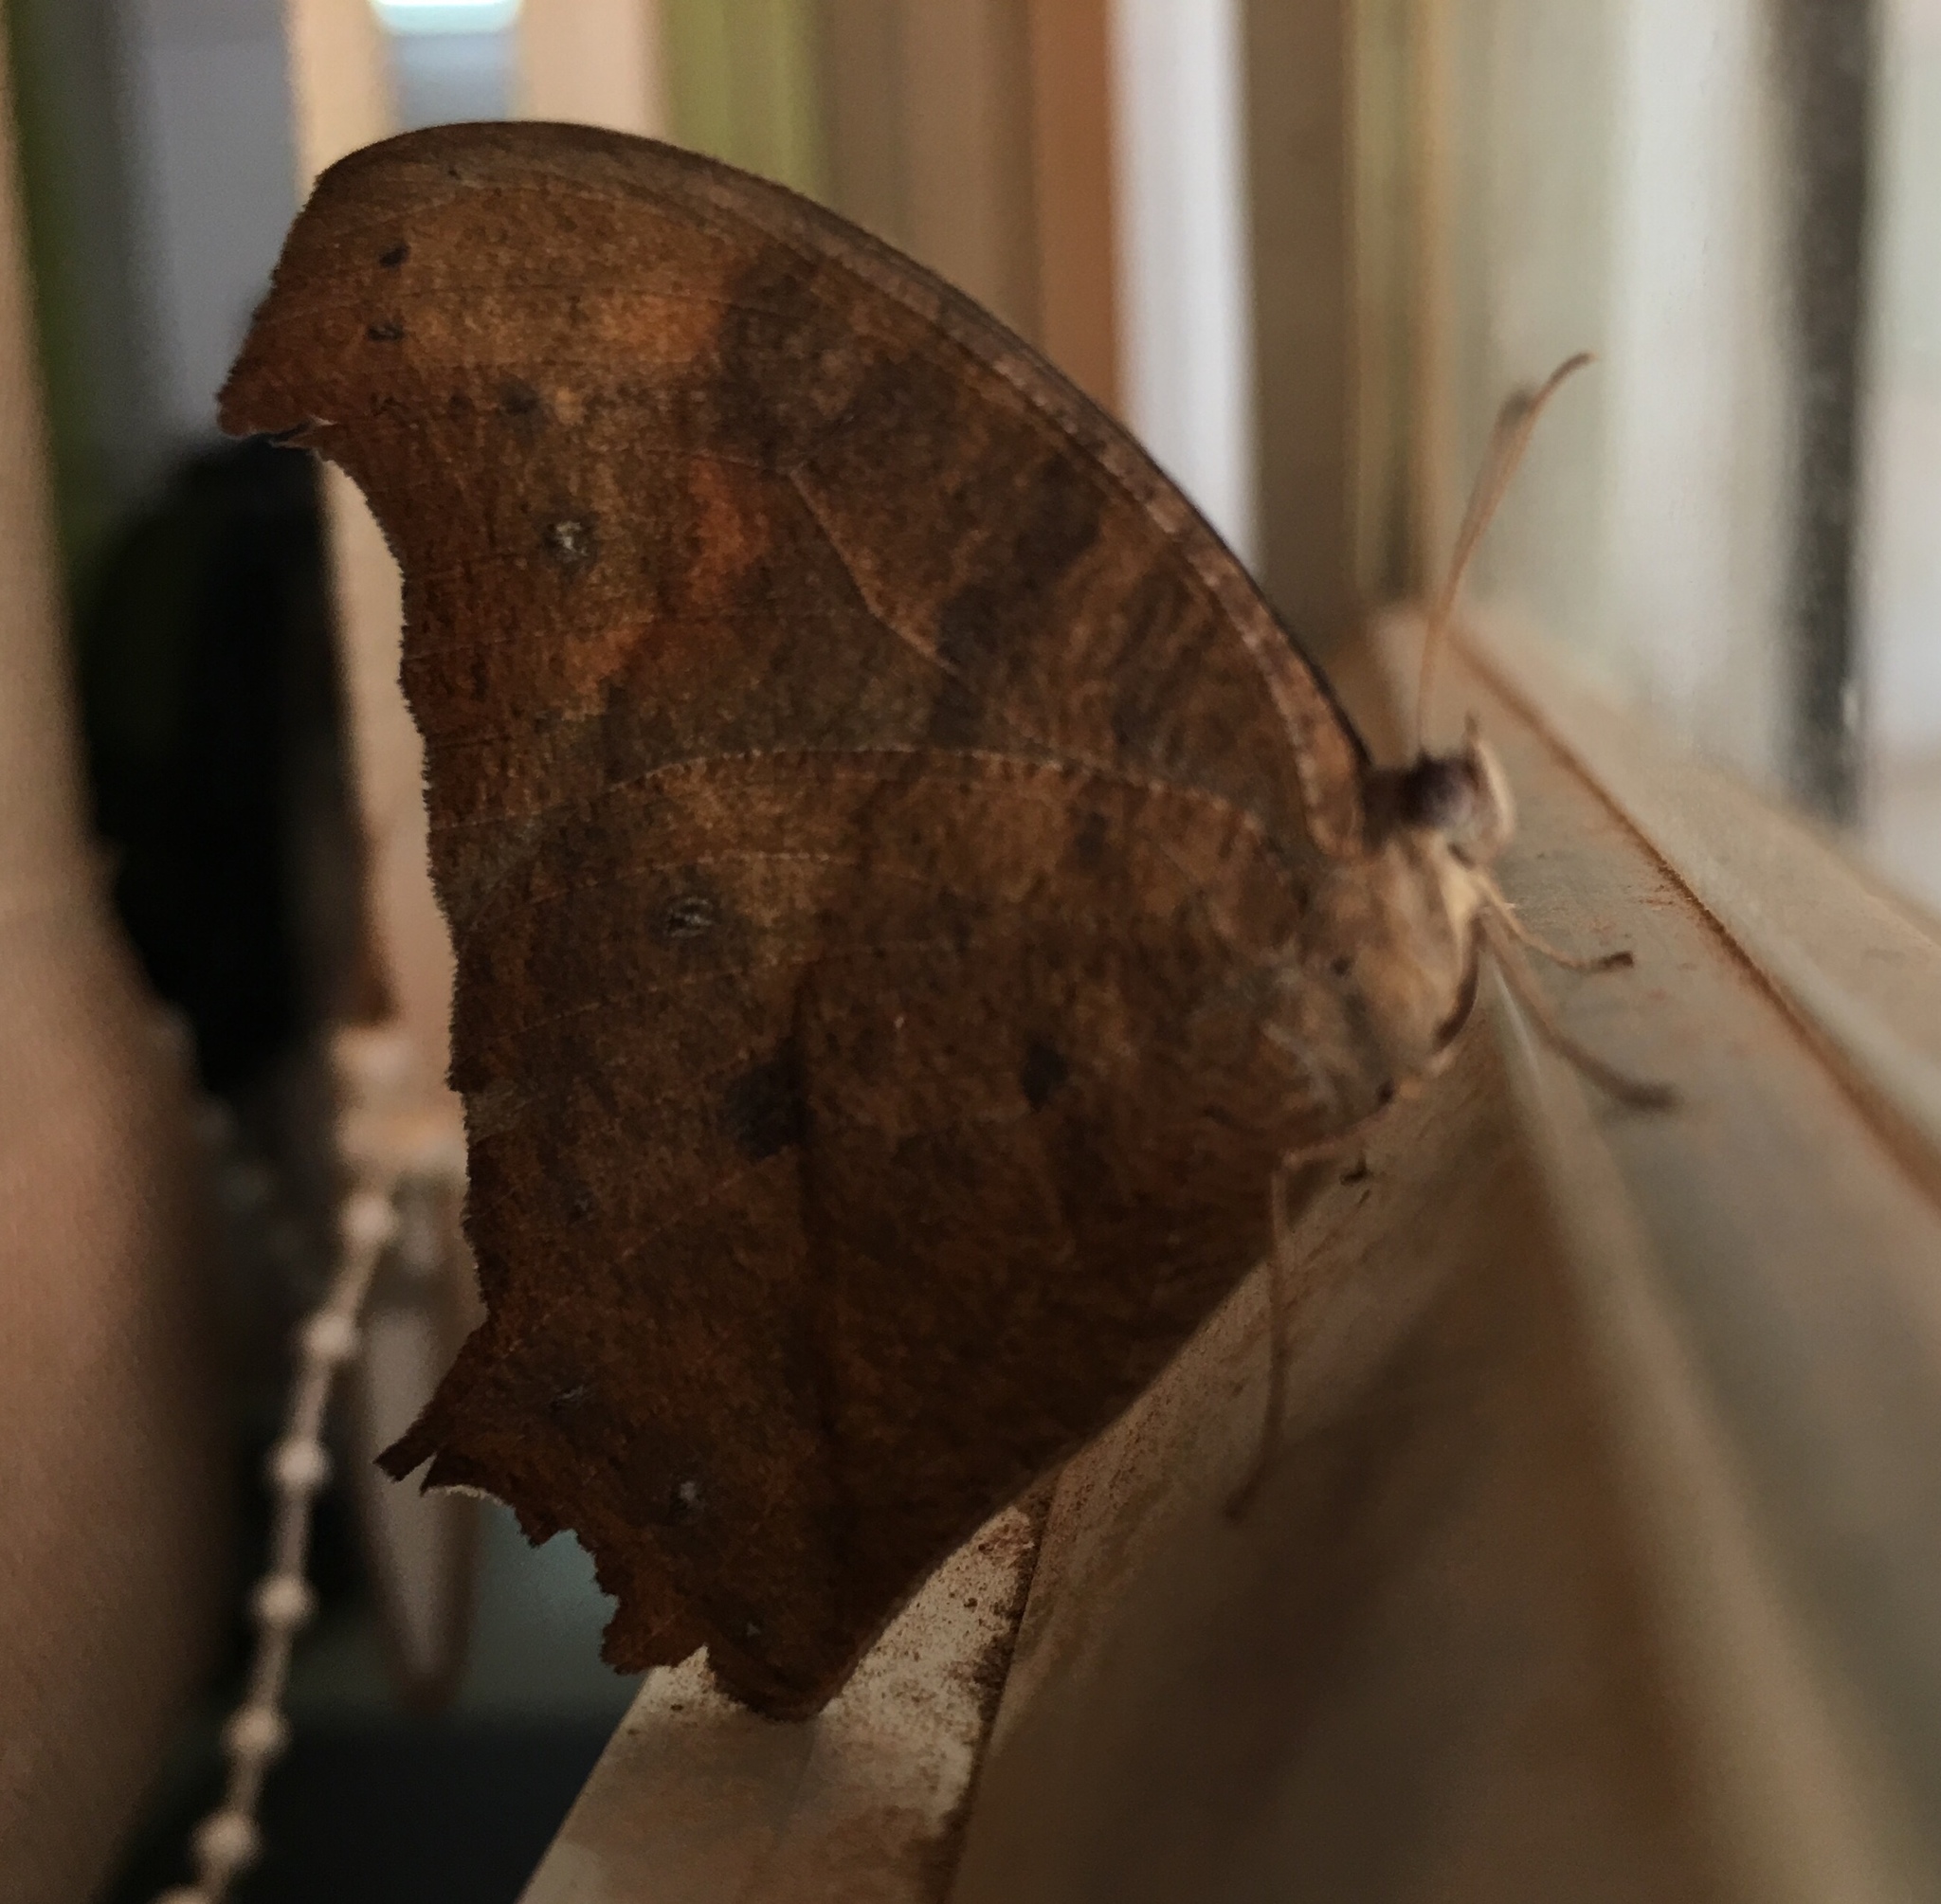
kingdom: Animalia
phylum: Arthropoda
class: Insecta
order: Lepidoptera
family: Nymphalidae
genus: Melanitis
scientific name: Melanitis leda
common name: Twilight brown
